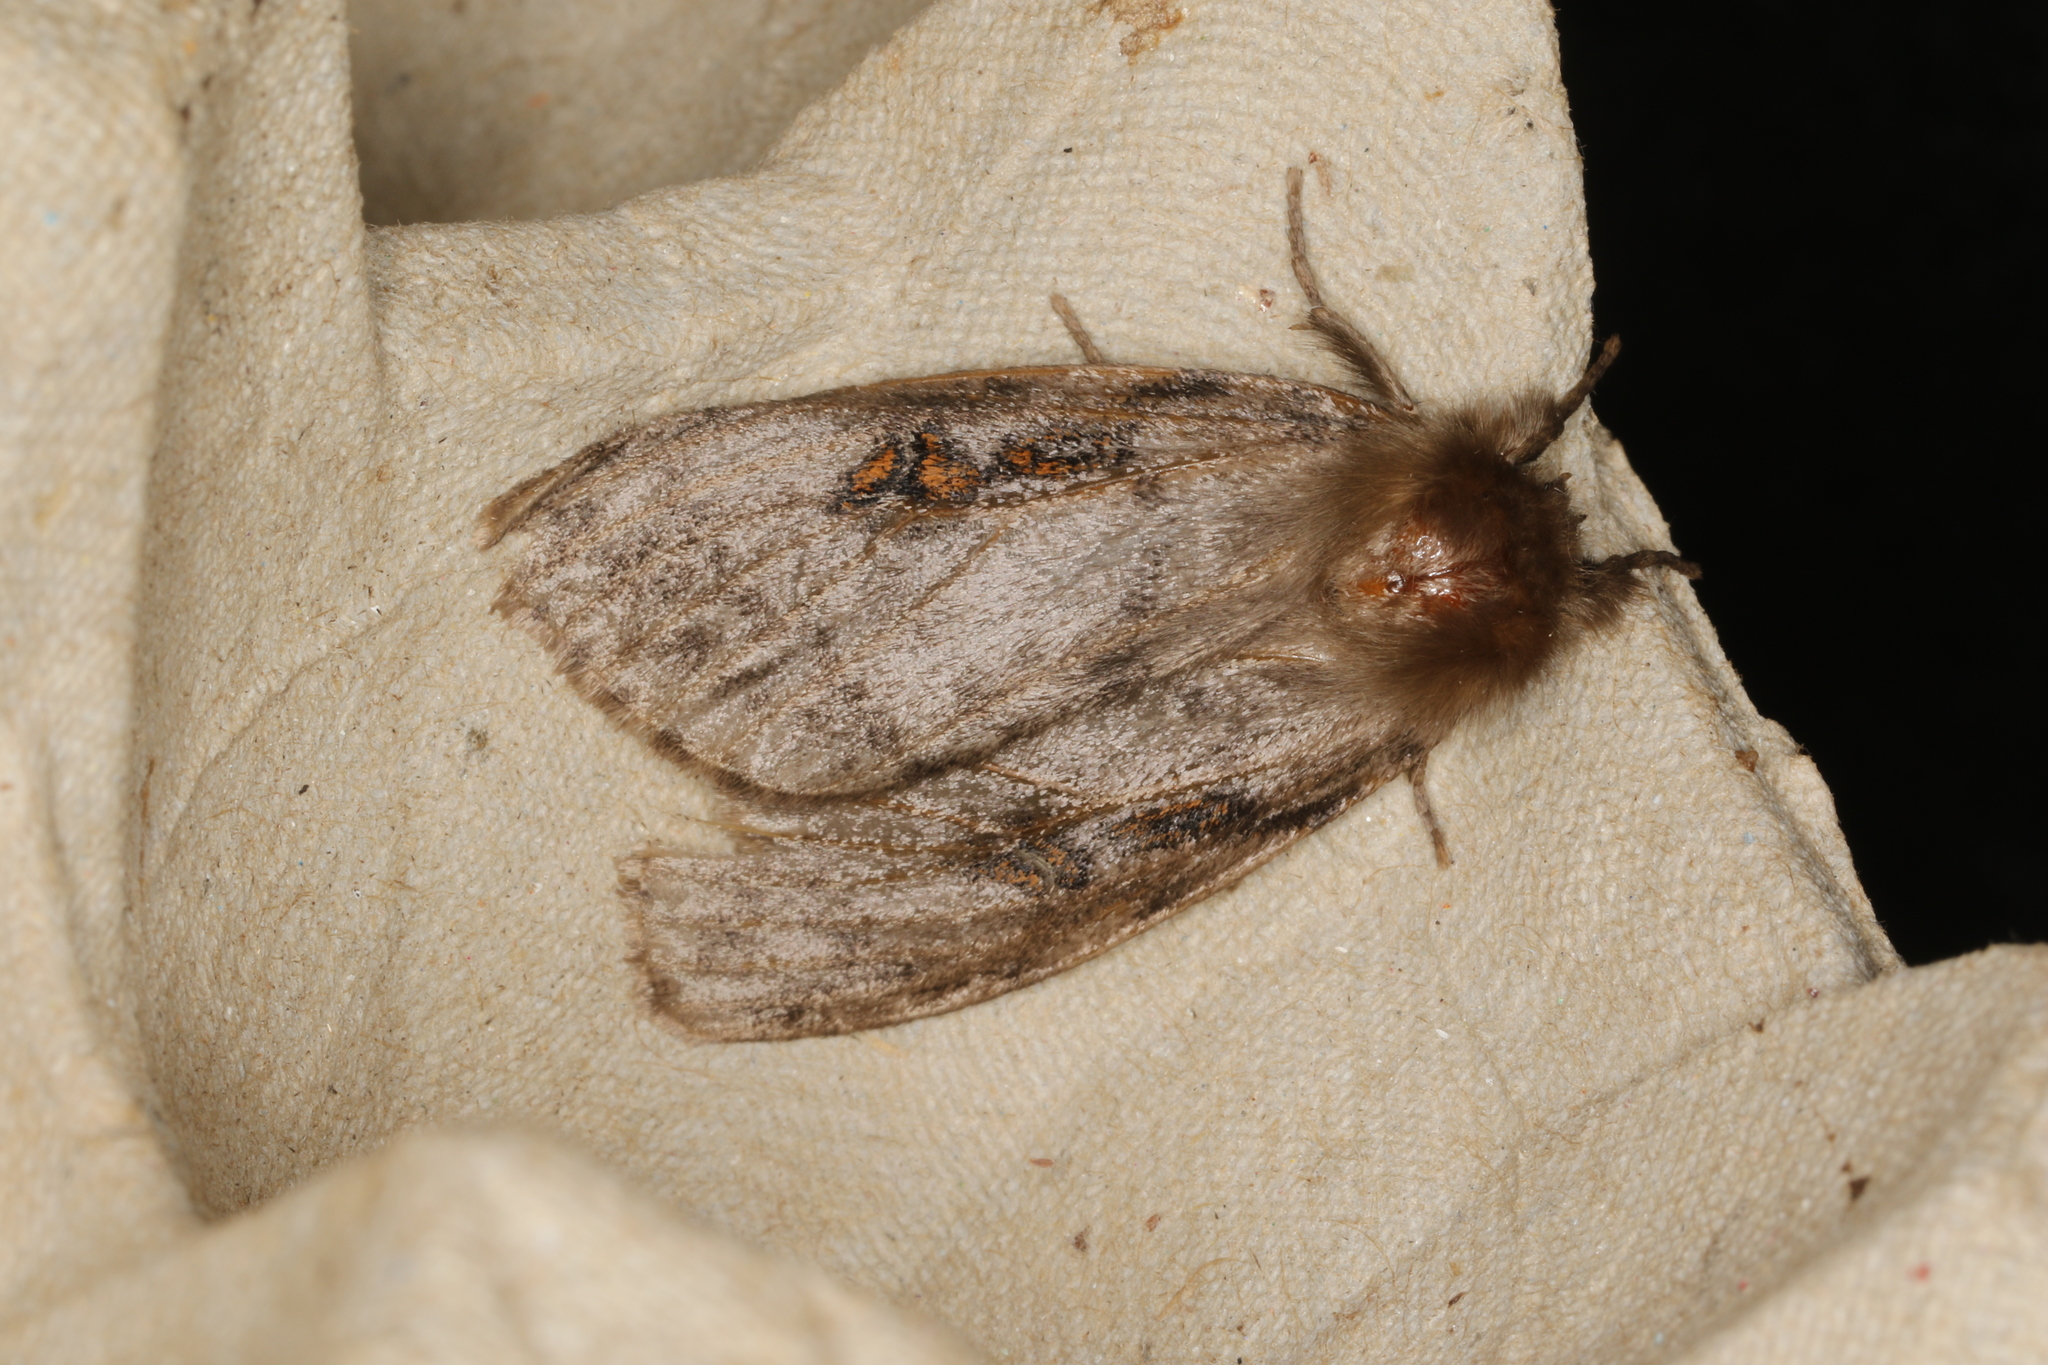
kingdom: Animalia
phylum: Arthropoda
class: Insecta
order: Lepidoptera
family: Erebidae
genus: Leptocneria
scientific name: Leptocneria reducta
